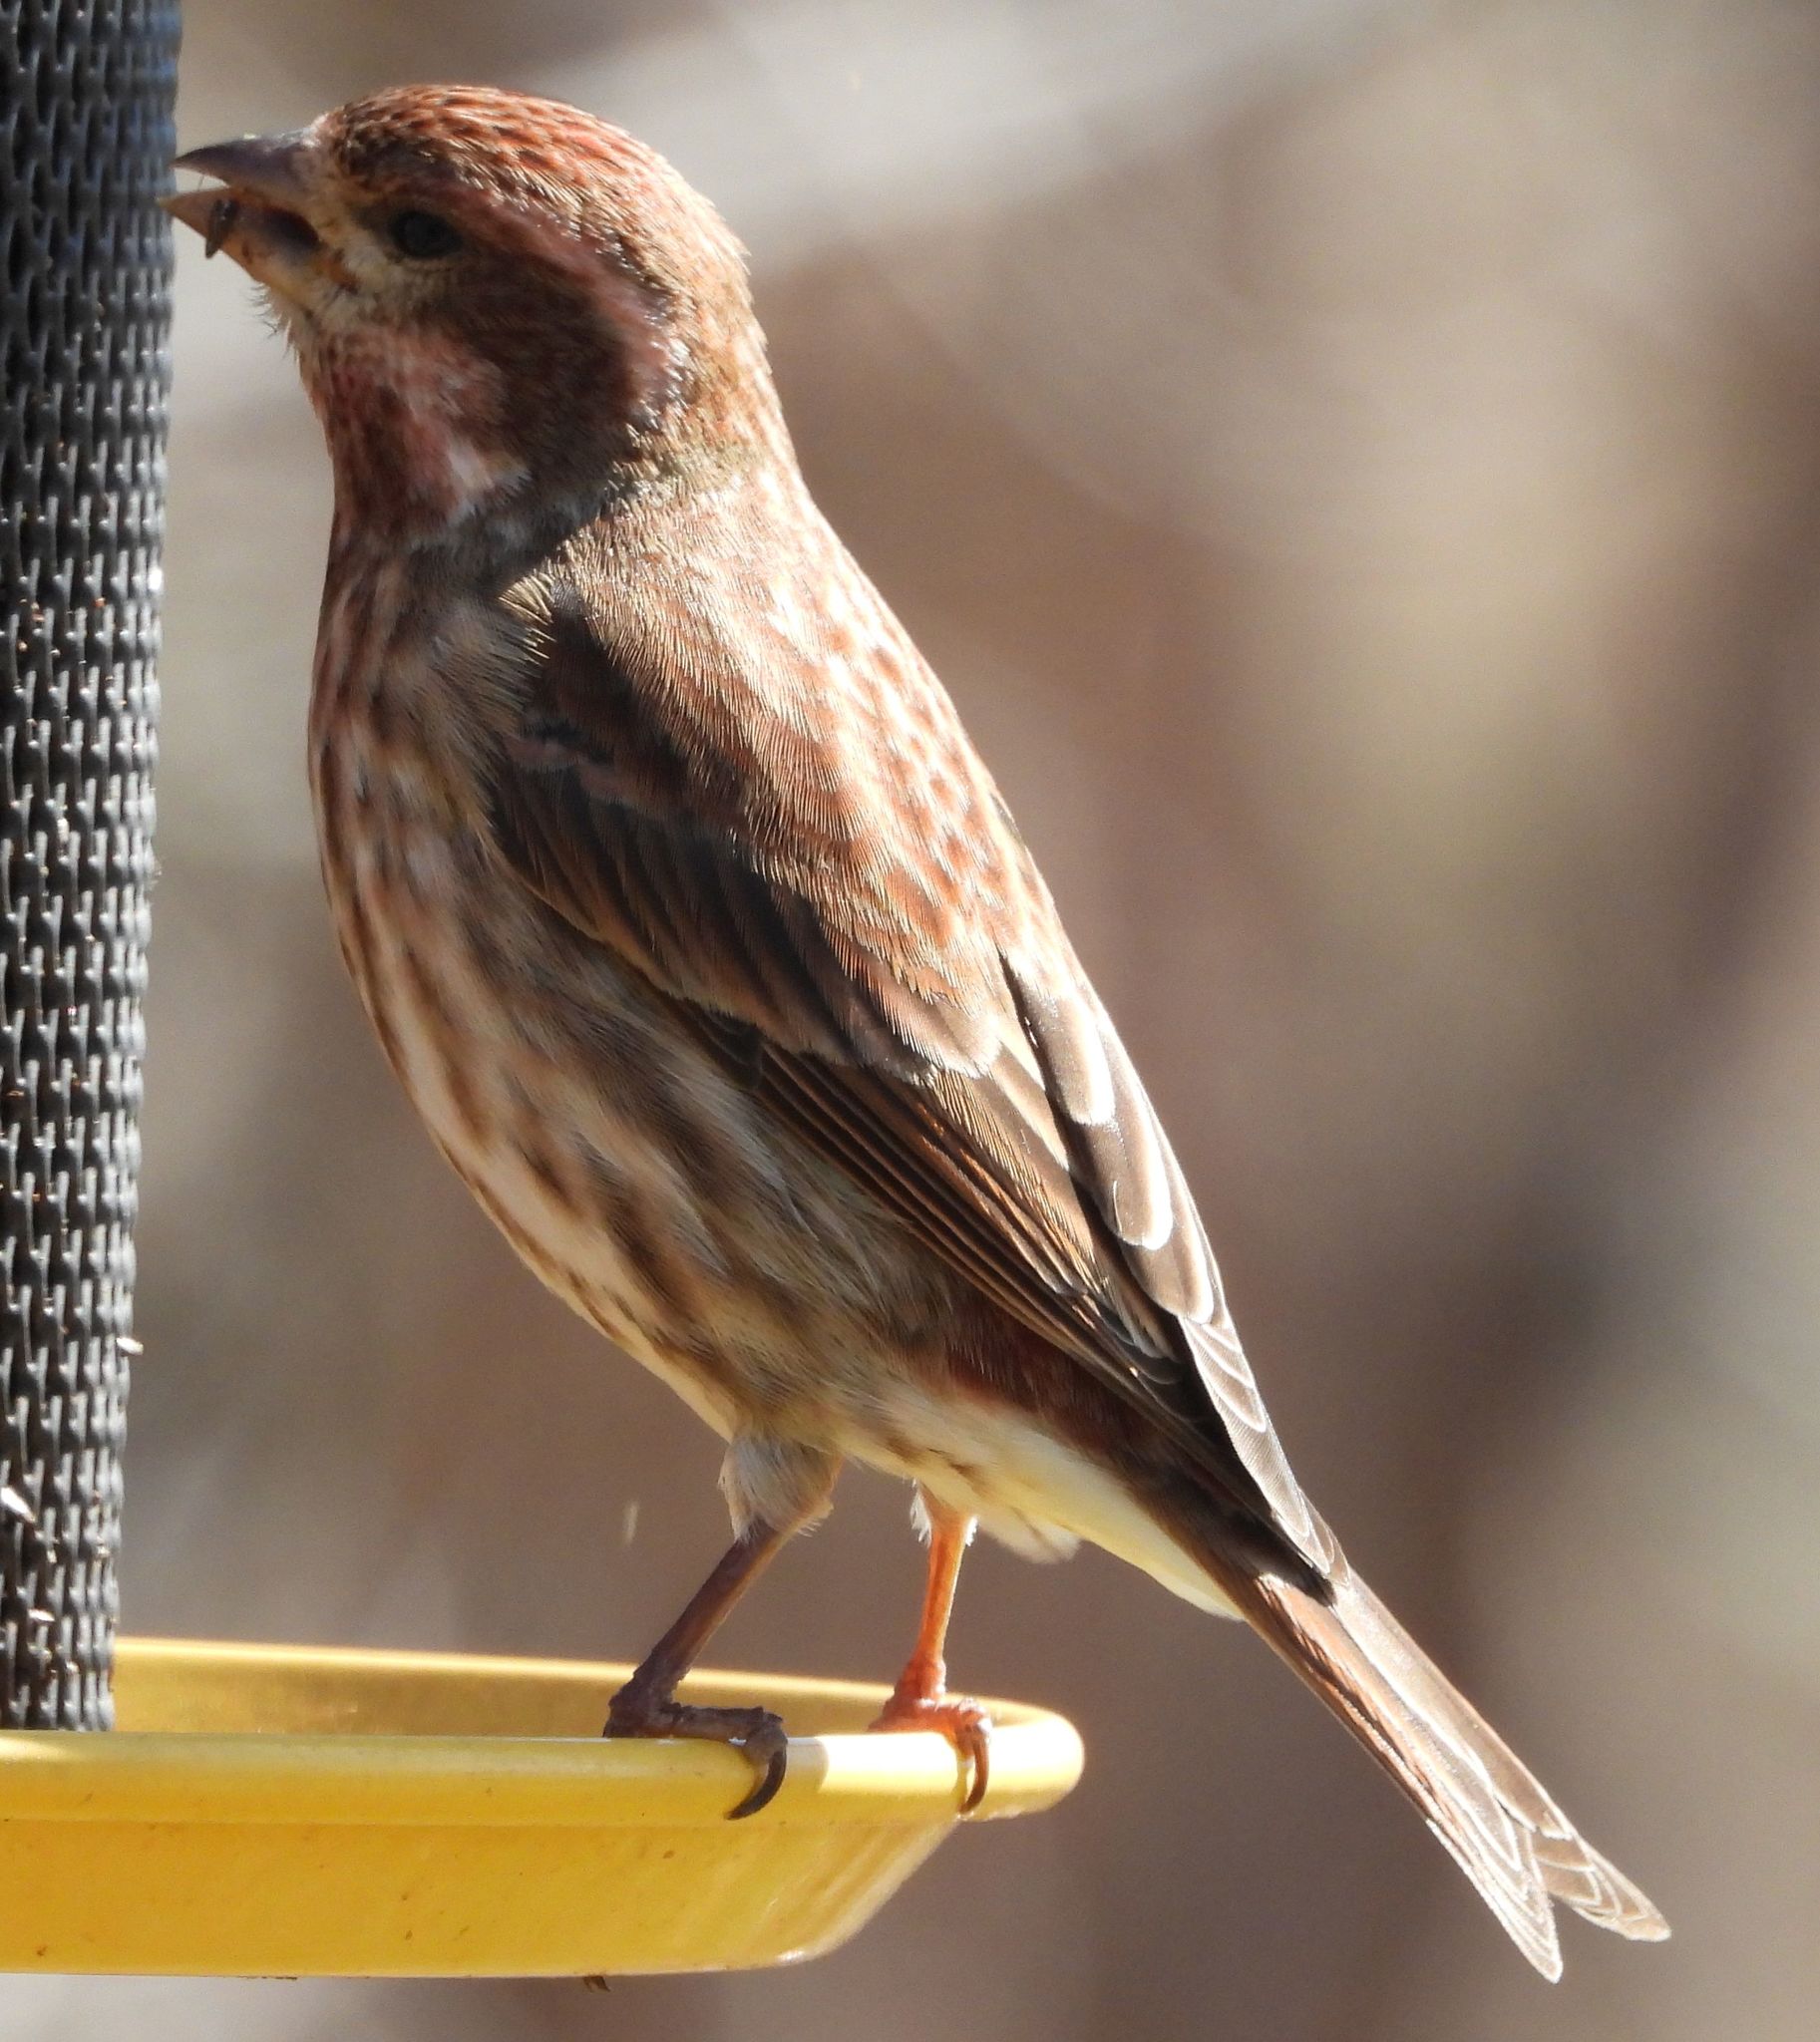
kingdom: Animalia
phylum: Chordata
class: Aves
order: Passeriformes
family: Fringillidae
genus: Haemorhous
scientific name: Haemorhous purpureus
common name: Purple finch
